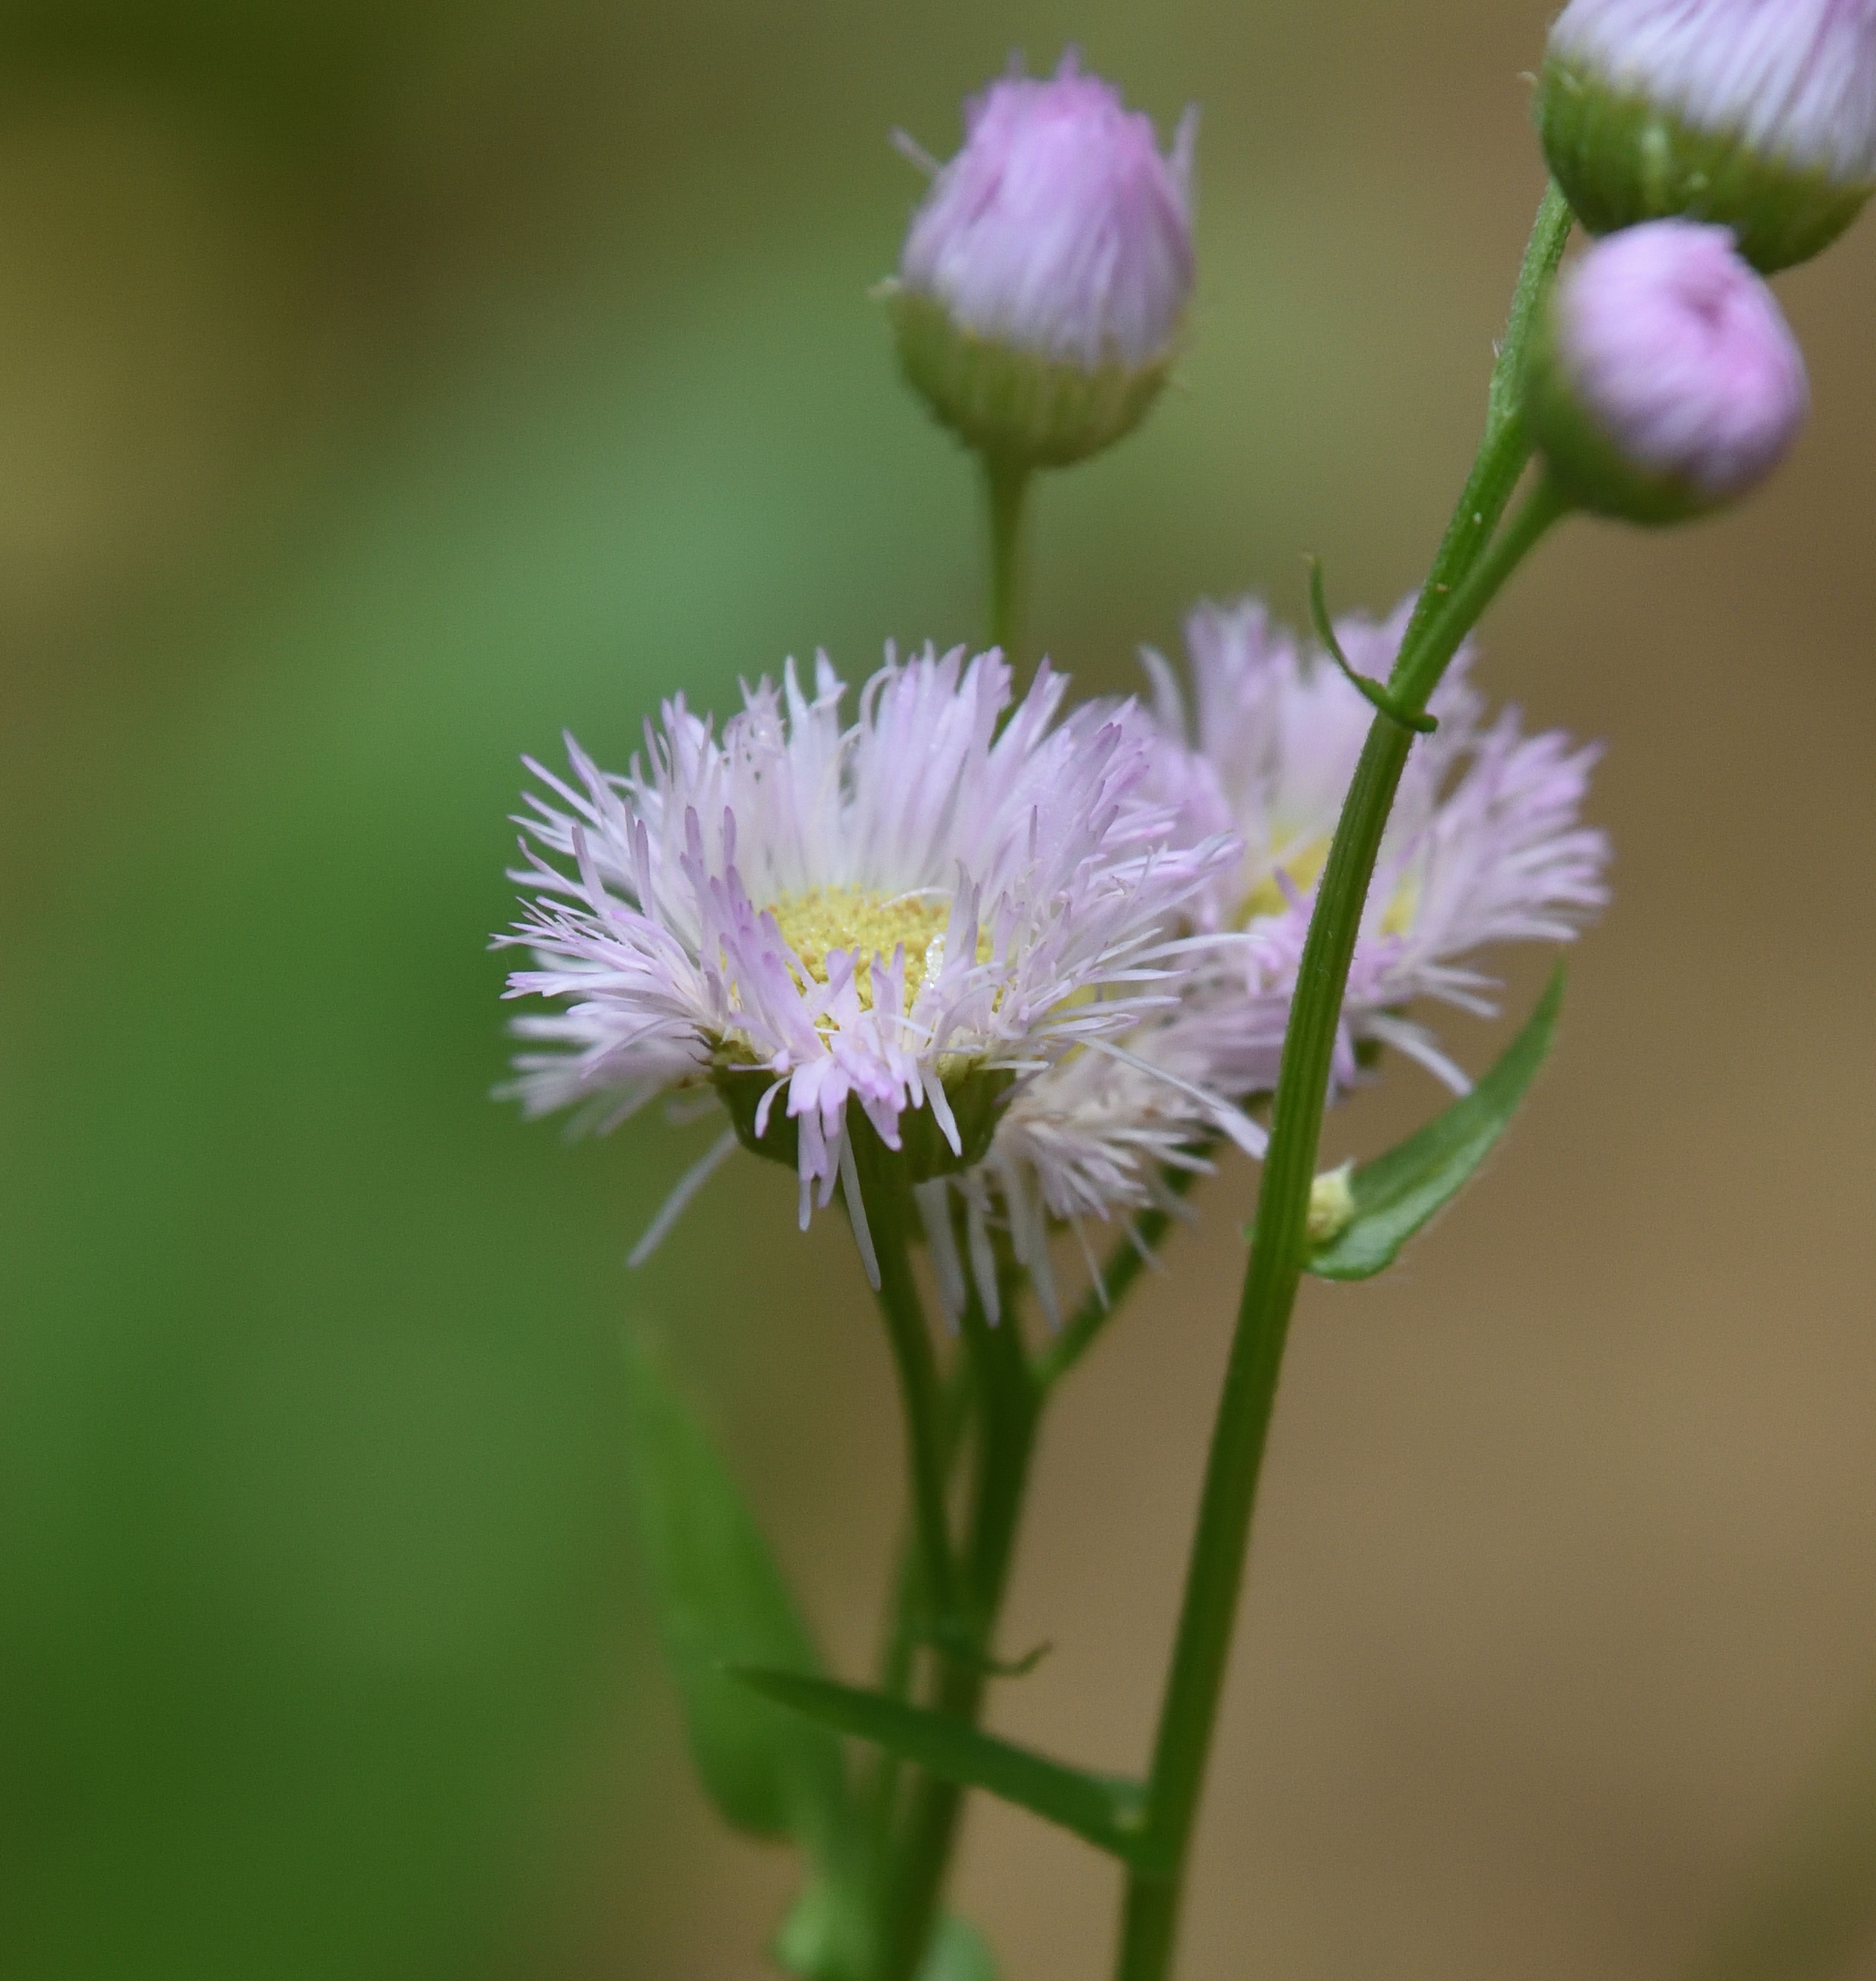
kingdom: Plantae
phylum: Tracheophyta
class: Magnoliopsida
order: Asterales
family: Asteraceae
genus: Erigeron
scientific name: Erigeron philadelphicus
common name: Robin's-plantain
